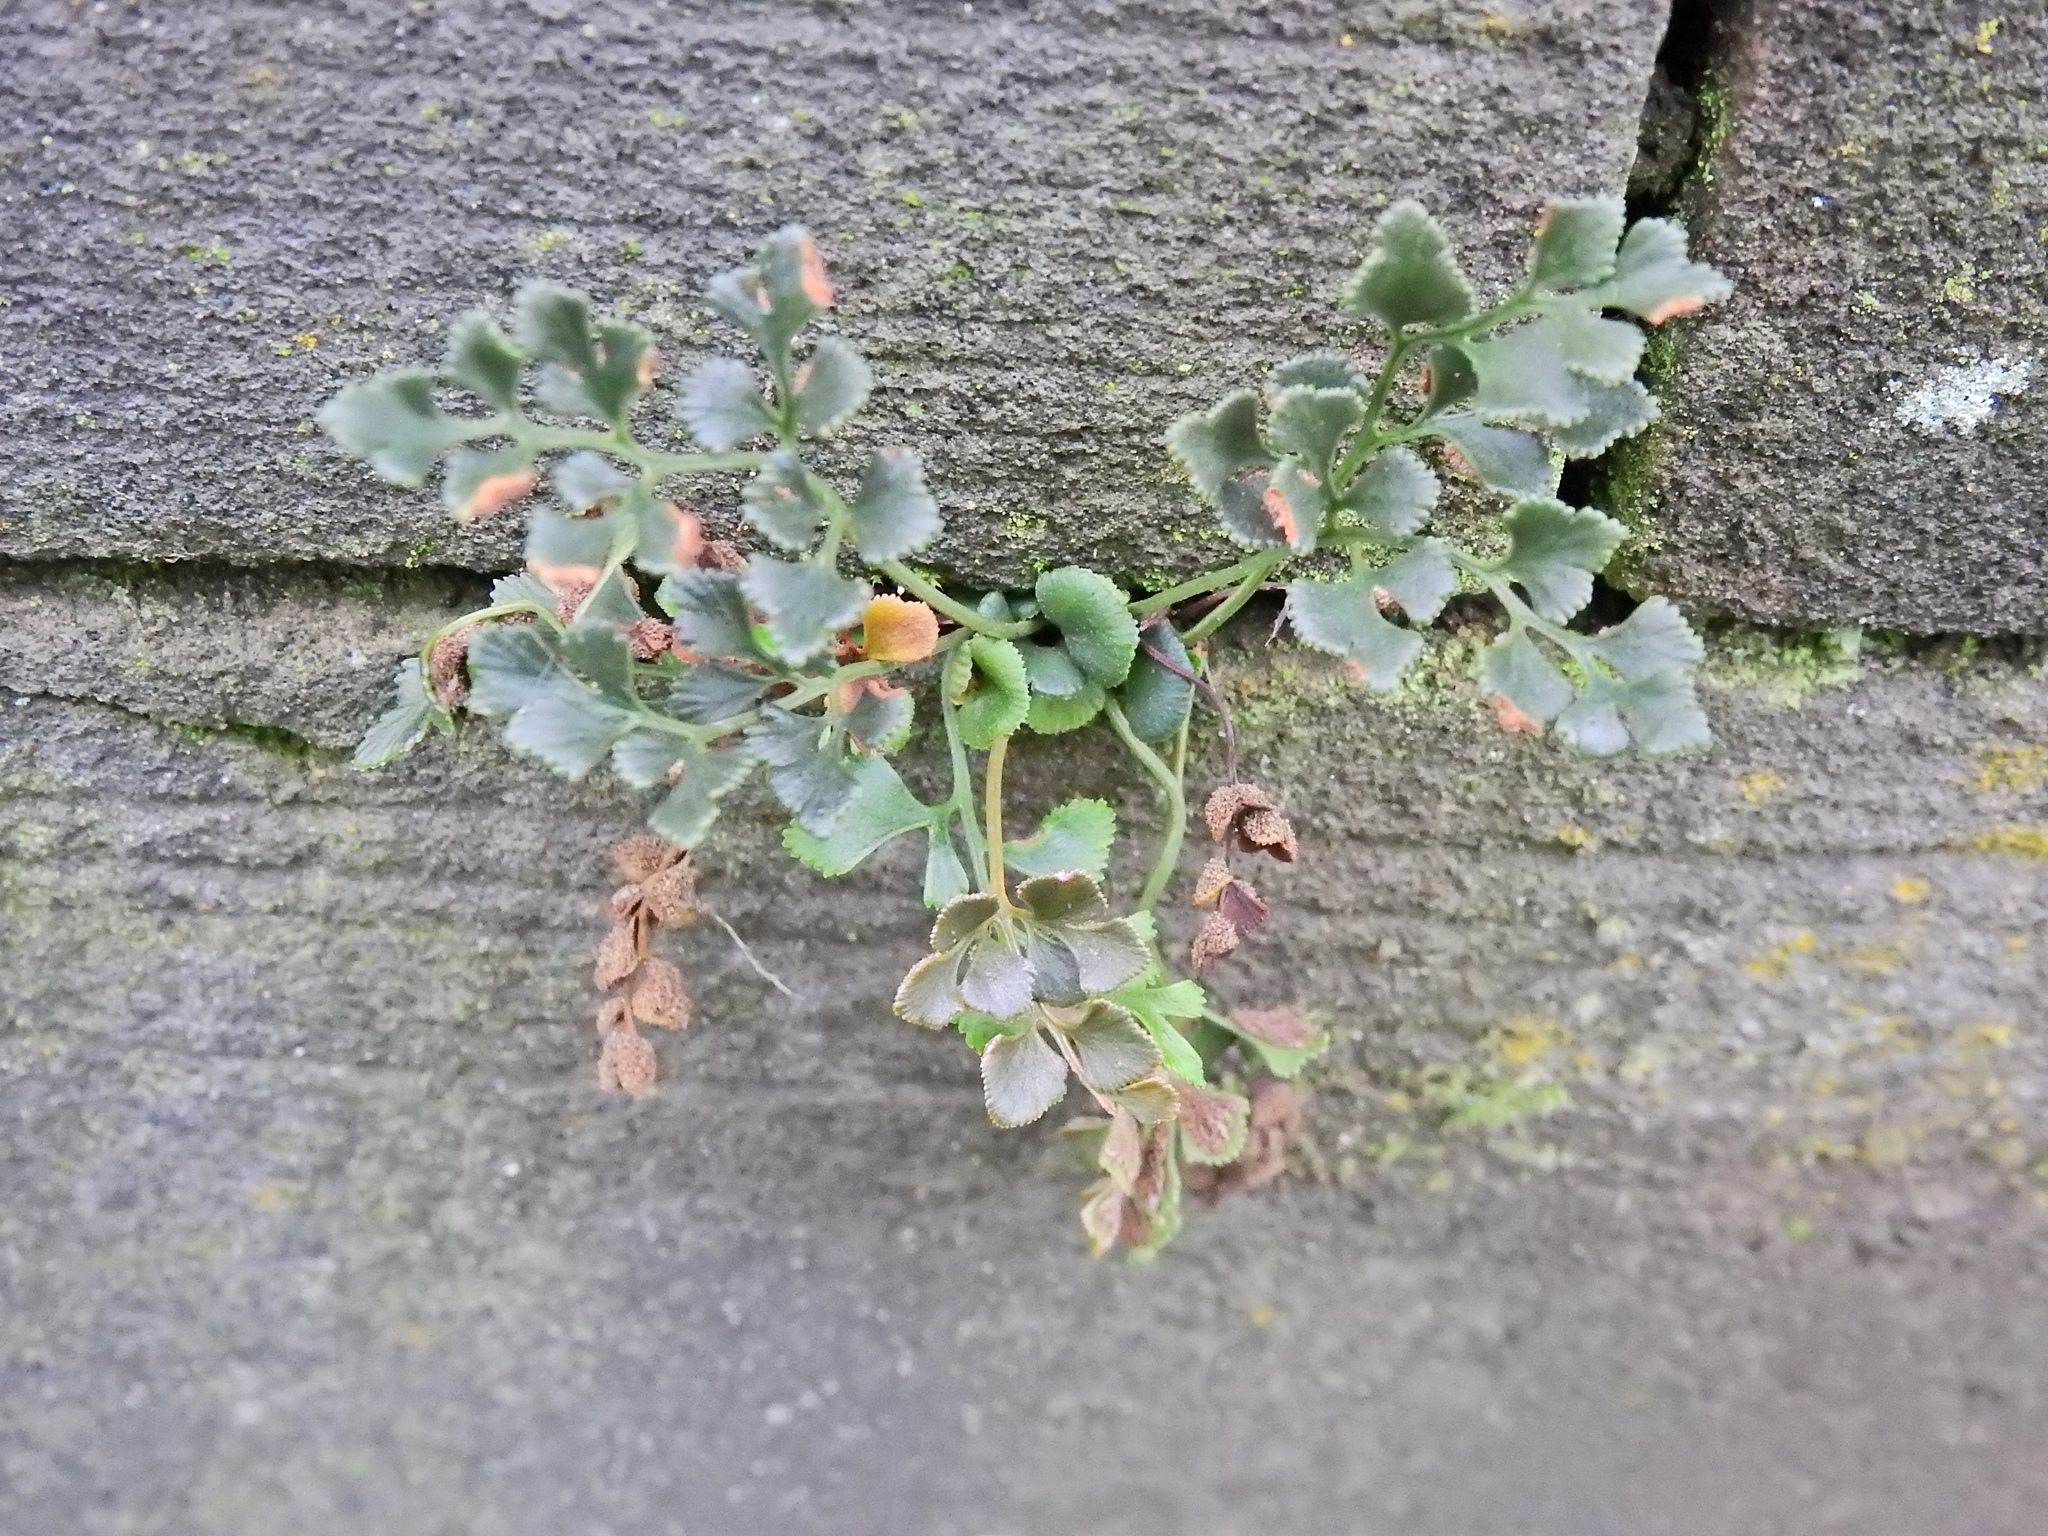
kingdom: Plantae
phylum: Tracheophyta
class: Polypodiopsida
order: Polypodiales
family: Aspleniaceae
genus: Asplenium
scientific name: Asplenium ruta-muraria
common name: Wall-rue
